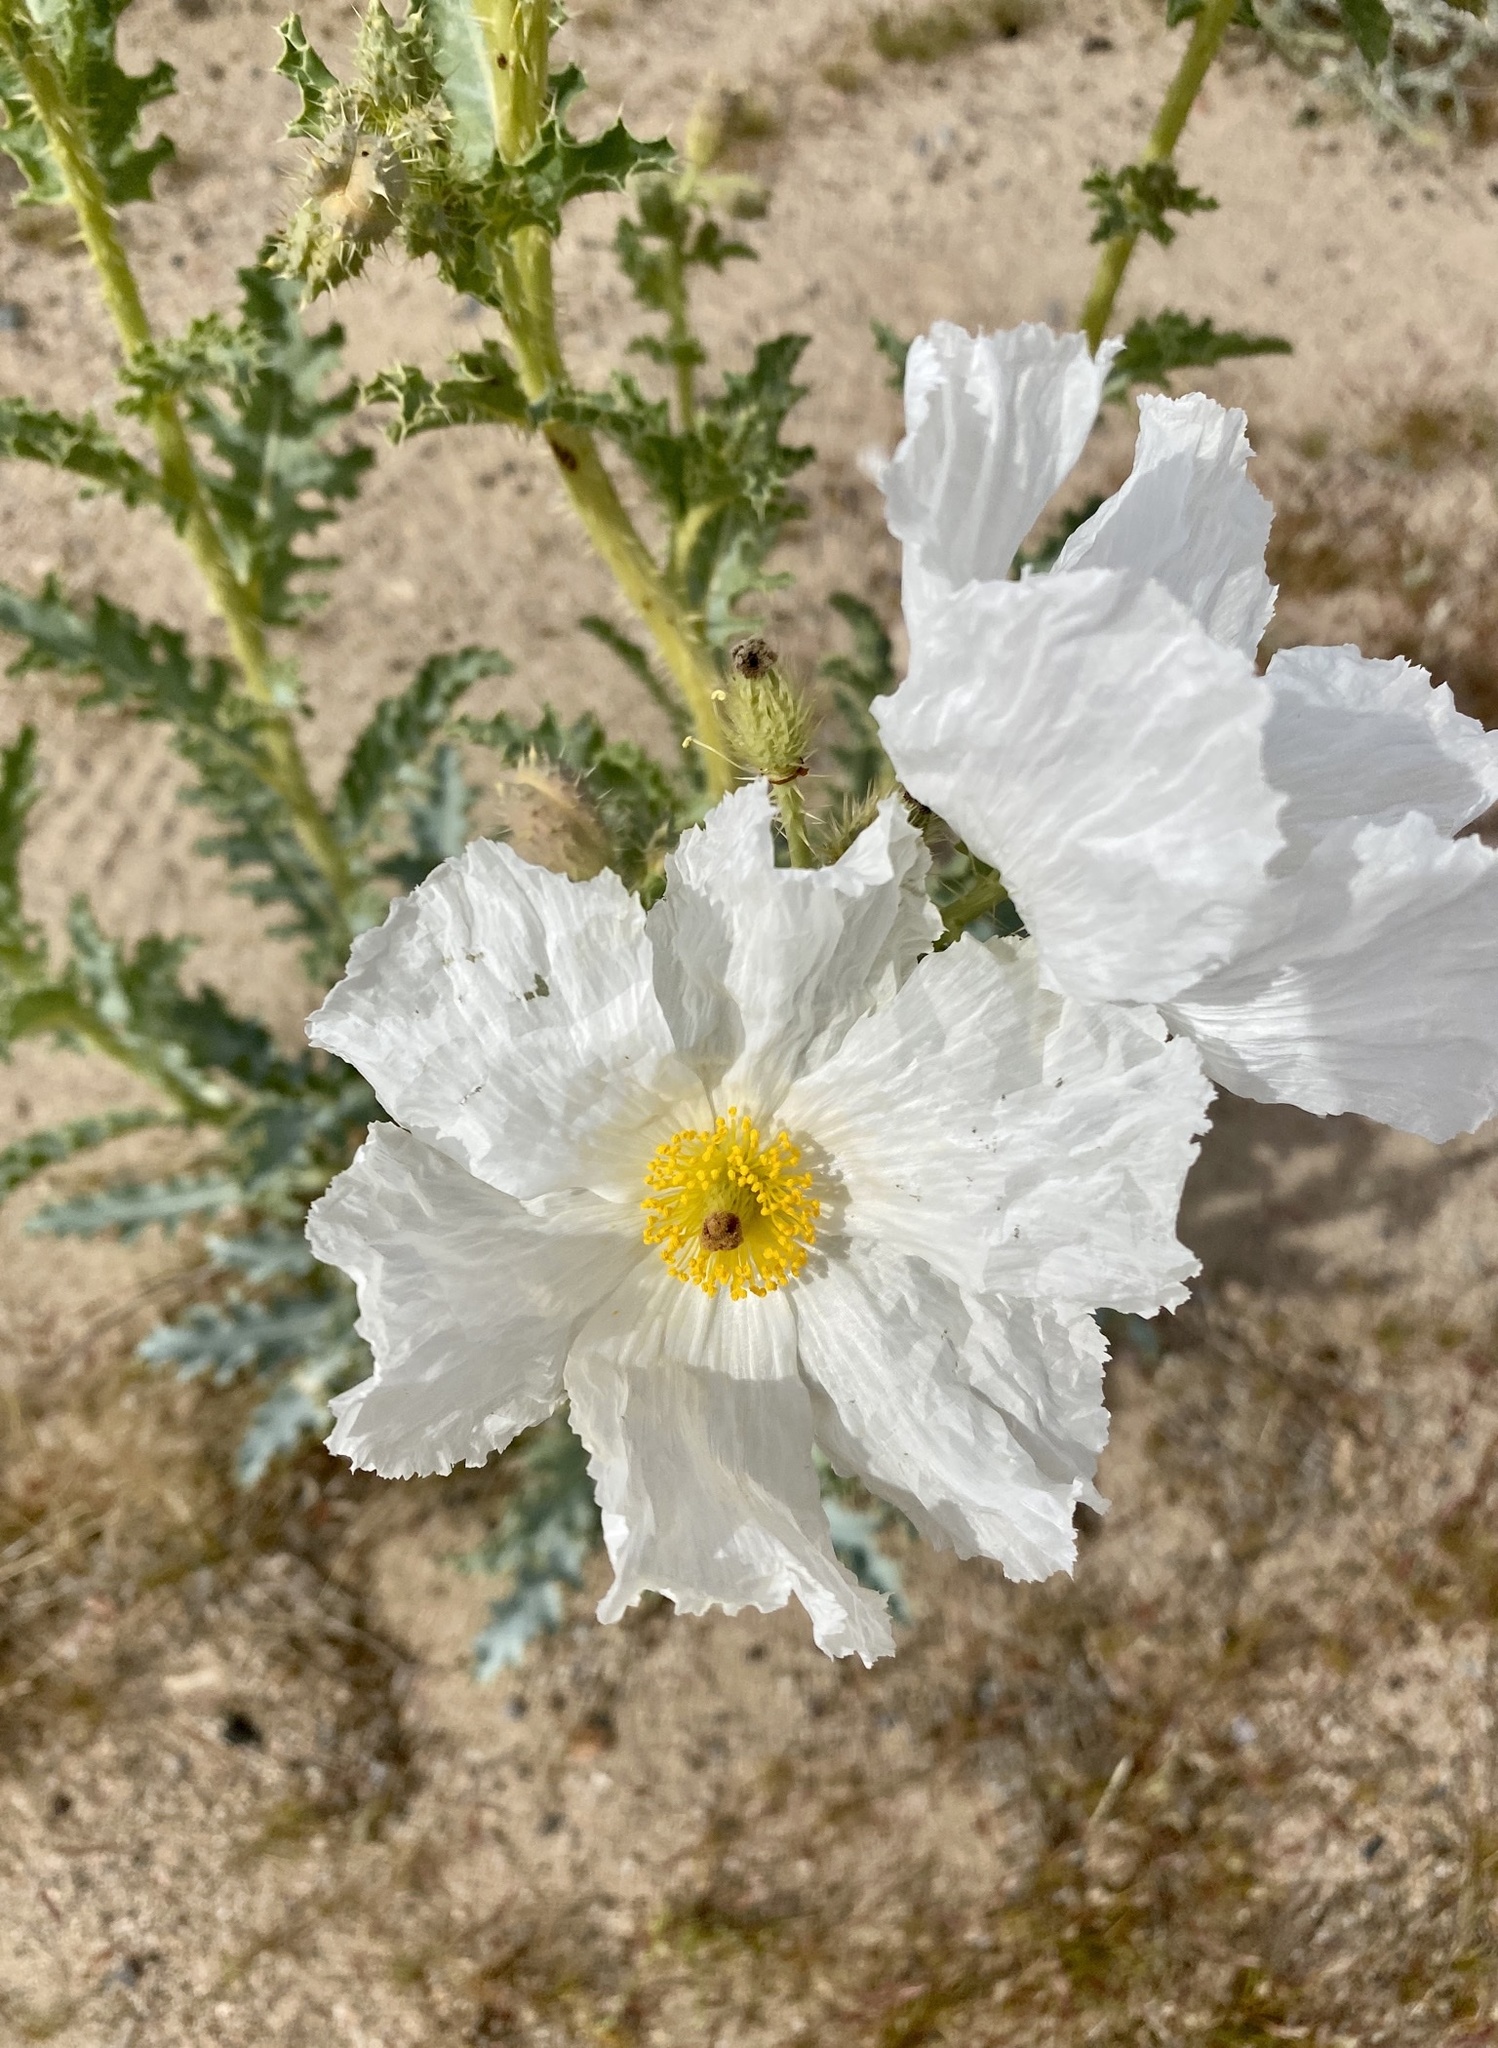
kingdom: Plantae
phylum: Tracheophyta
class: Magnoliopsida
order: Ranunculales
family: Papaveraceae
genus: Argemone
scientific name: Argemone corymbosa
